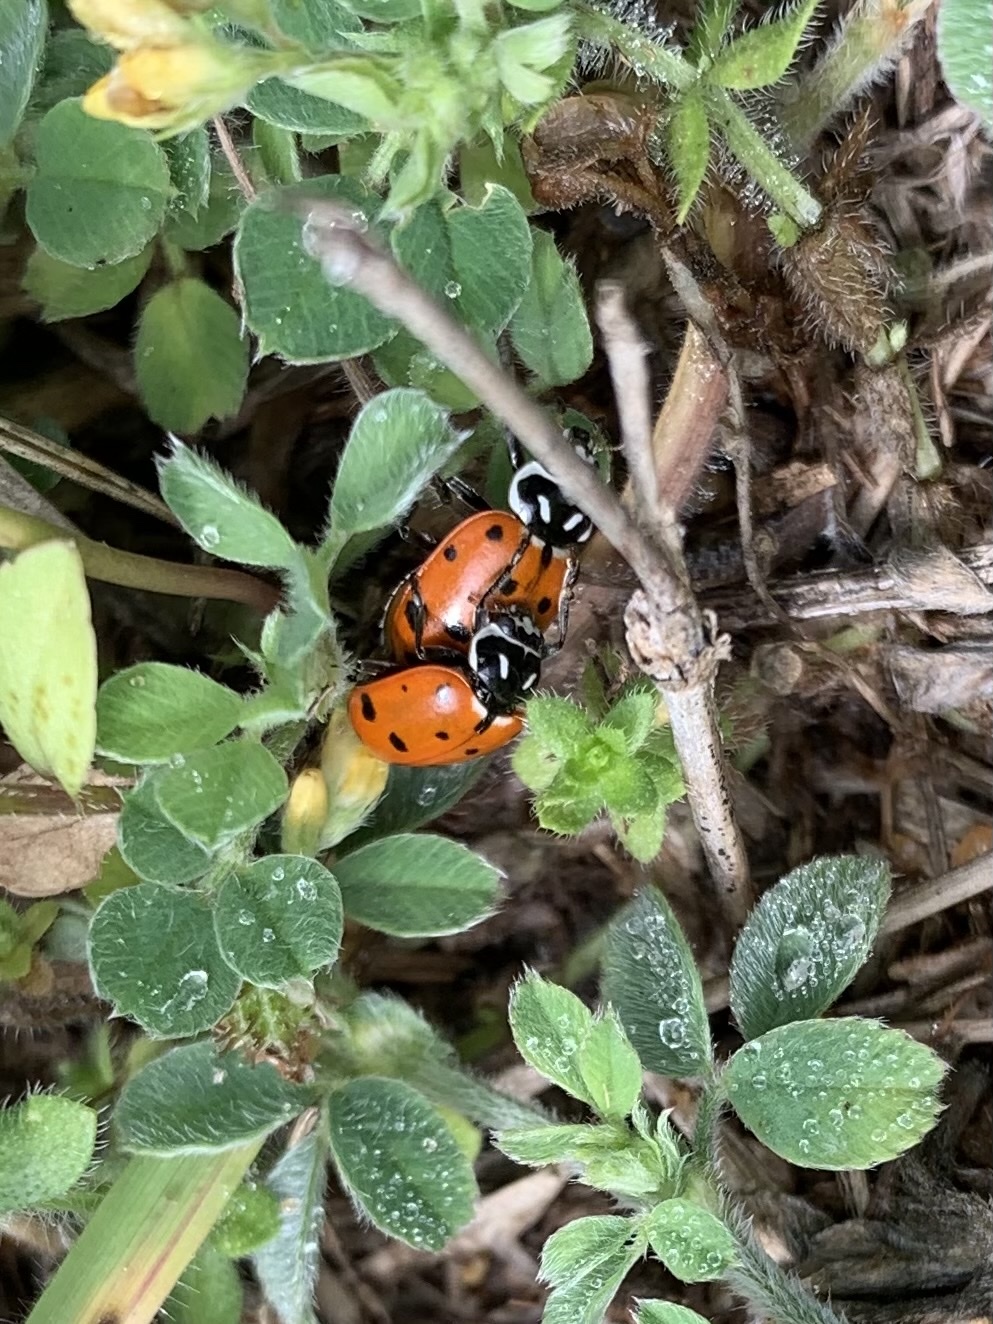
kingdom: Animalia
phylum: Arthropoda
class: Insecta
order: Coleoptera
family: Coccinellidae
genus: Hippodamia
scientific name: Hippodamia convergens
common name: Convergent lady beetle
